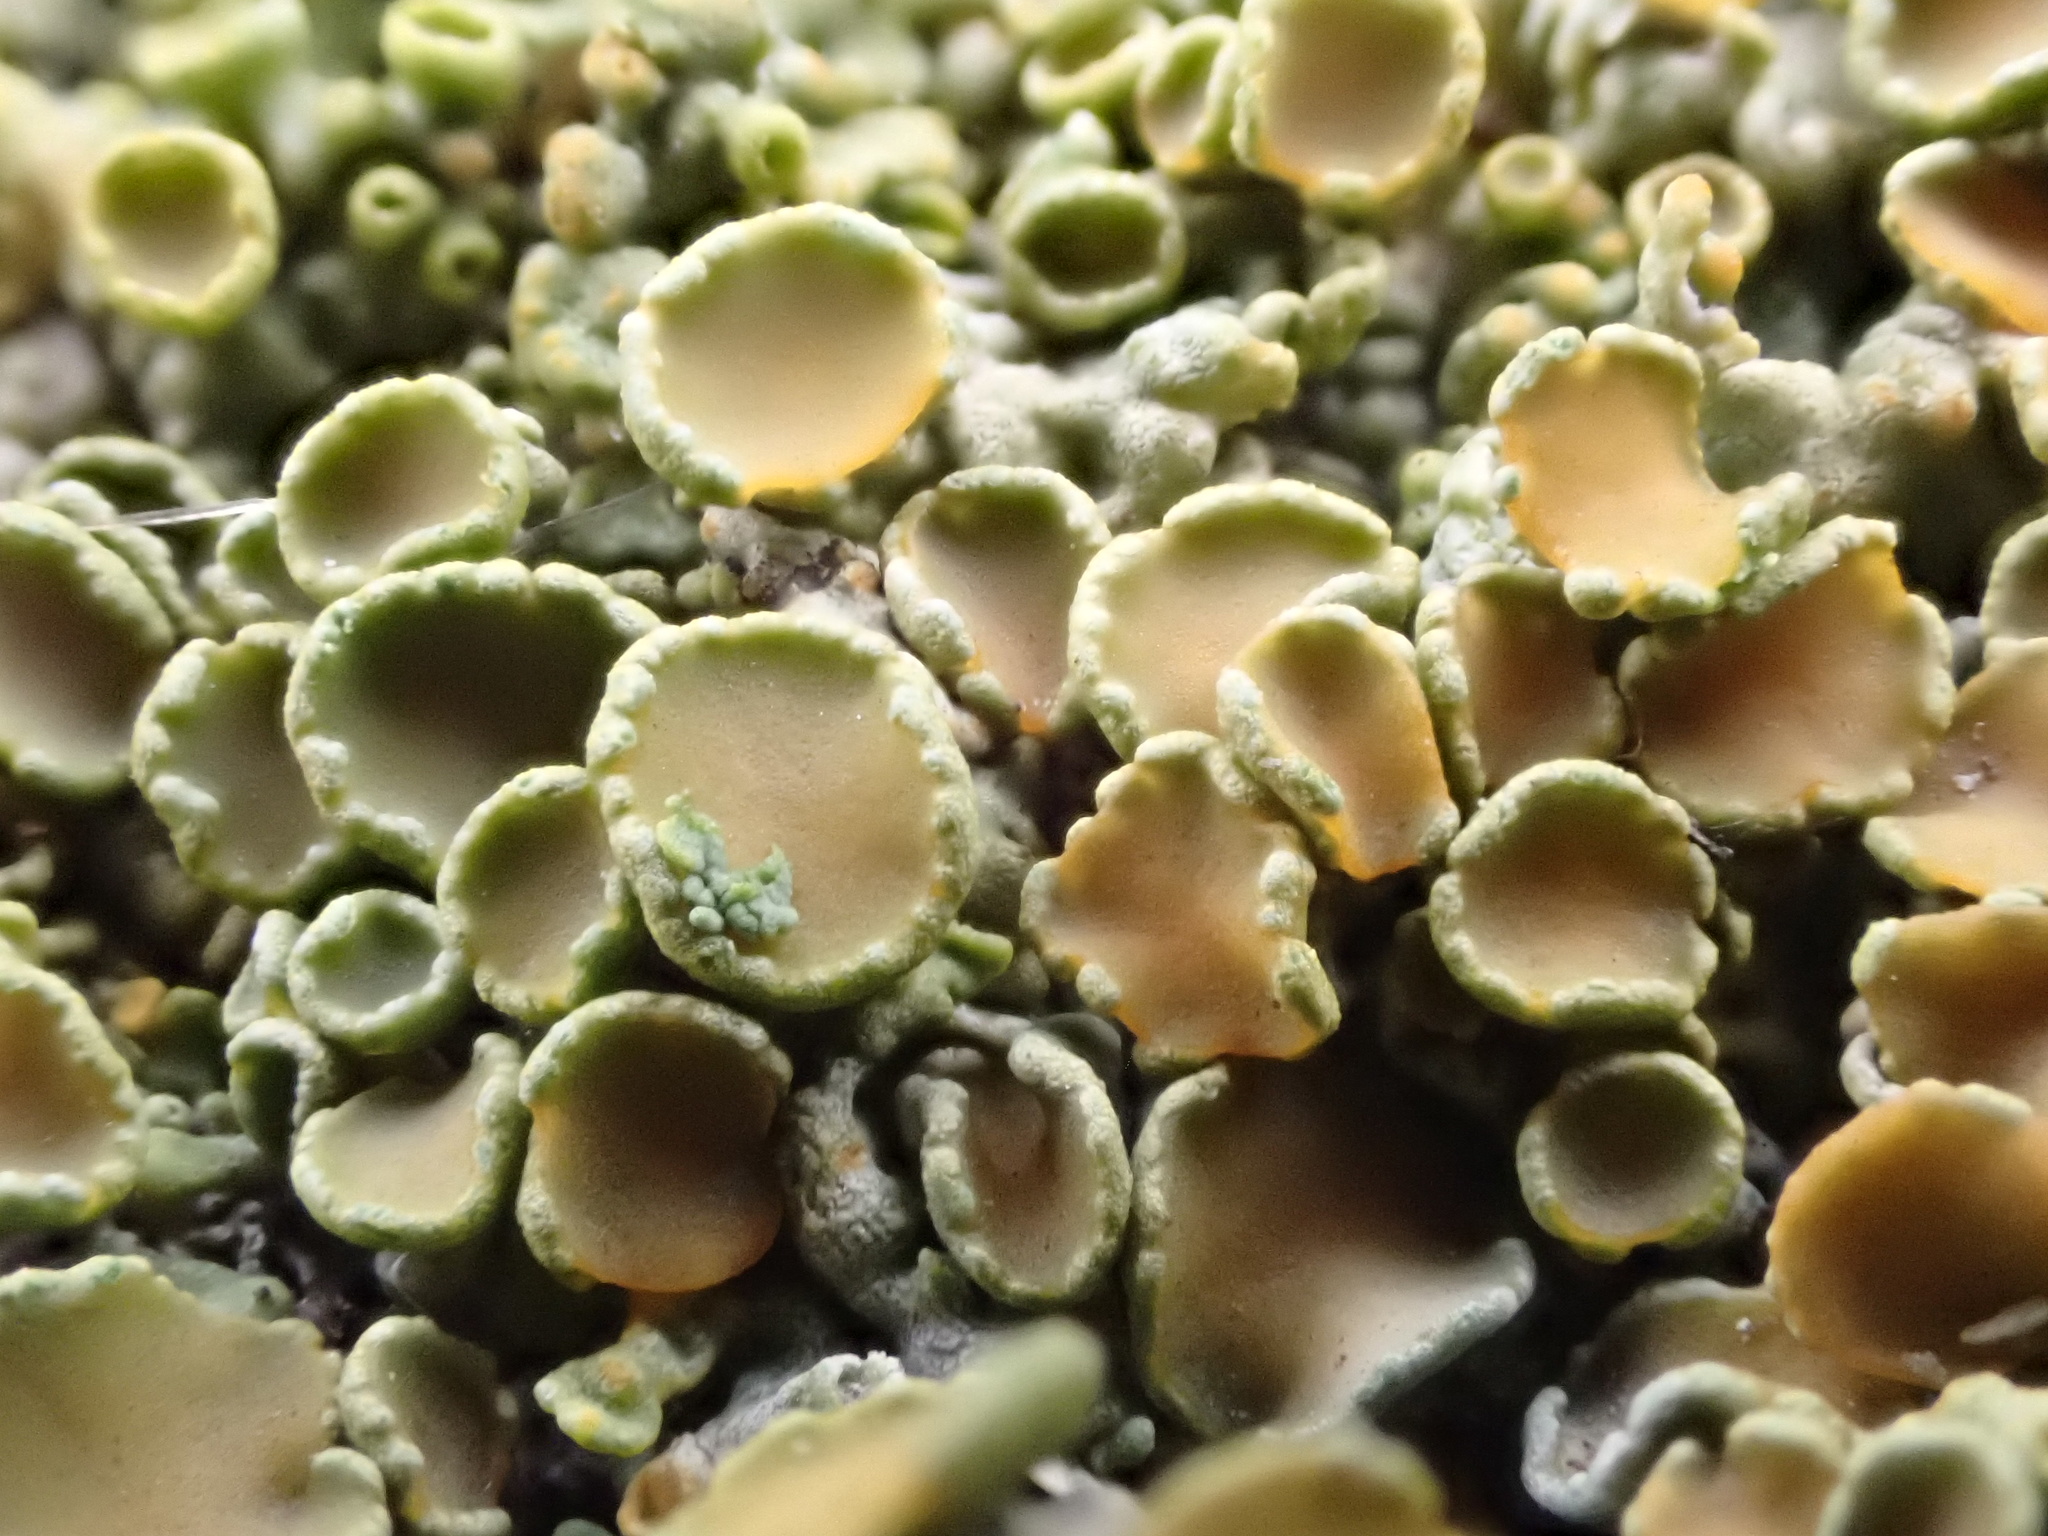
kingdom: Fungi
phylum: Ascomycota
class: Lecanoromycetes
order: Teloschistales
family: Teloschistaceae
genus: Xanthoria
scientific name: Xanthoria parietina
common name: Common orange lichen
